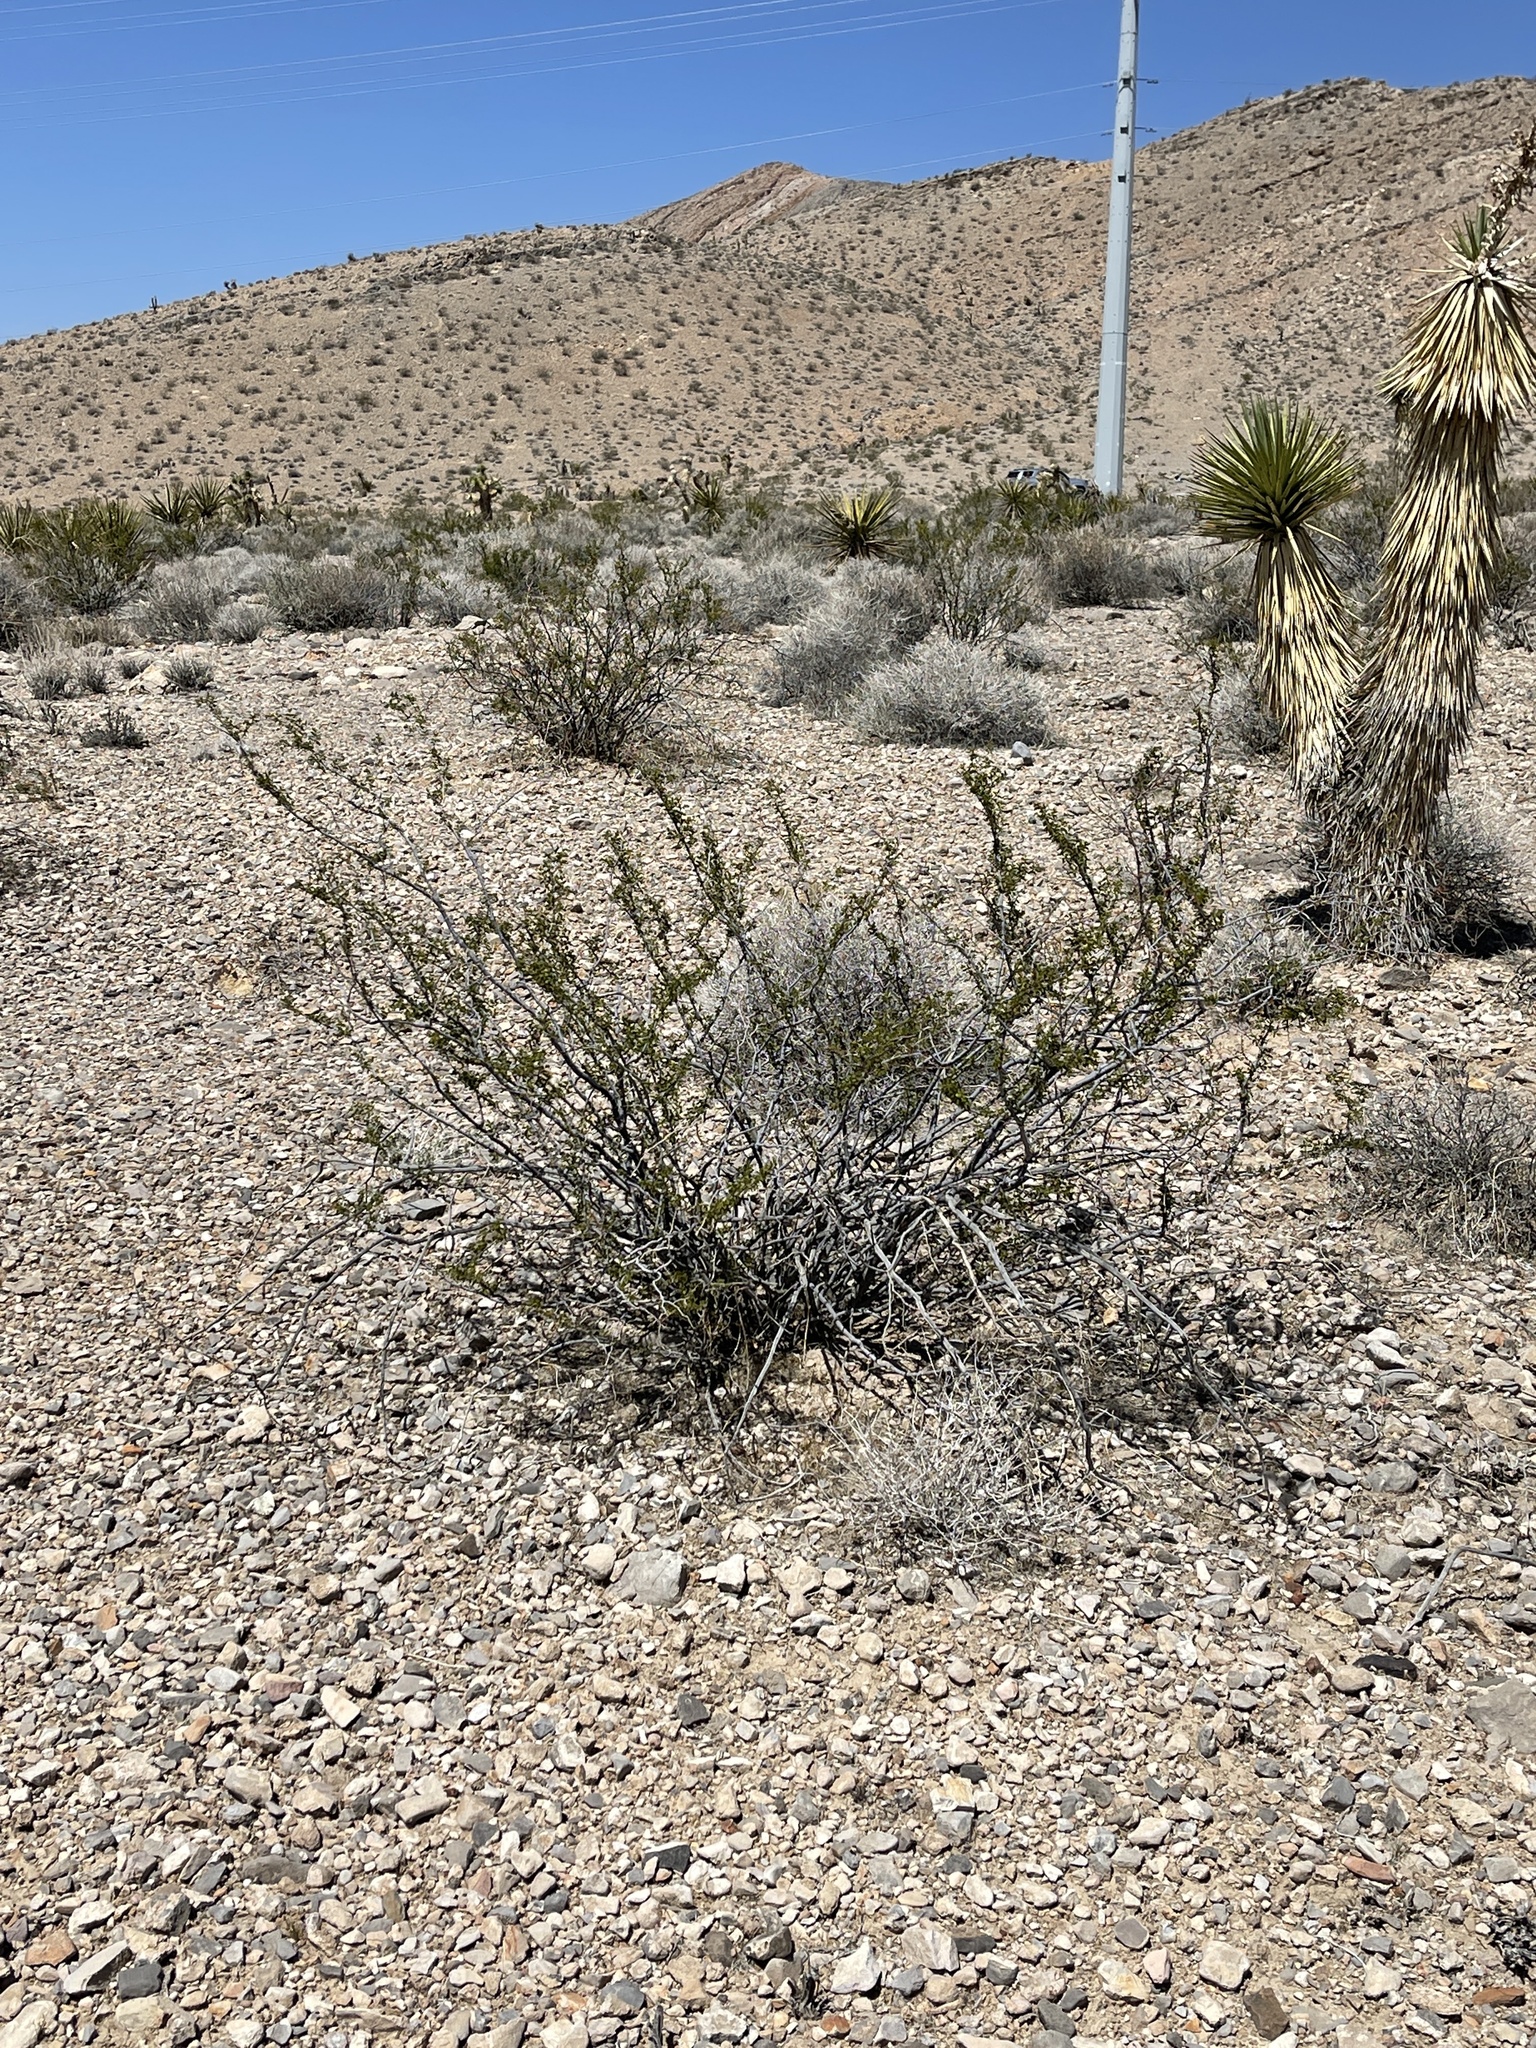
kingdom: Plantae
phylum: Tracheophyta
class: Magnoliopsida
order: Zygophyllales
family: Zygophyllaceae
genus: Larrea
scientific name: Larrea tridentata
